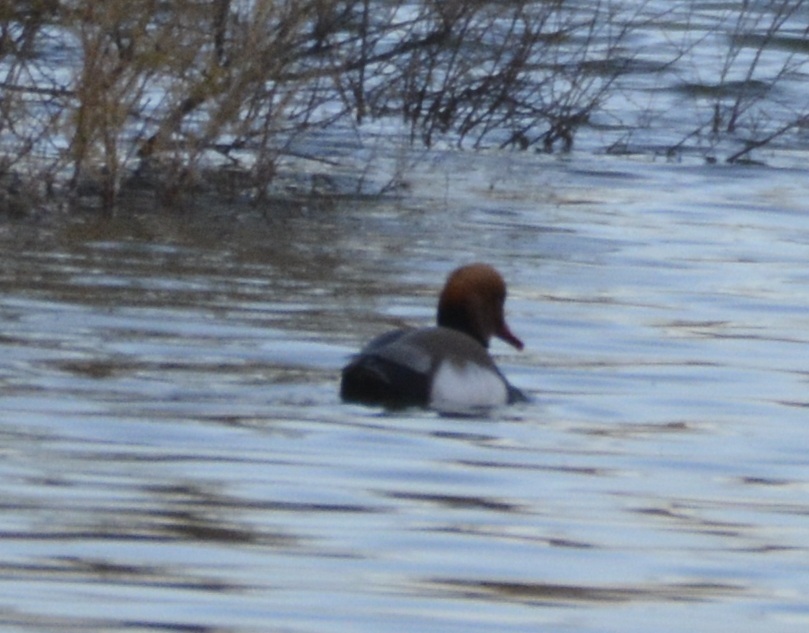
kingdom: Animalia
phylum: Chordata
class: Aves
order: Anseriformes
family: Anatidae
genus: Netta
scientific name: Netta rufina
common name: Red-crested pochard
